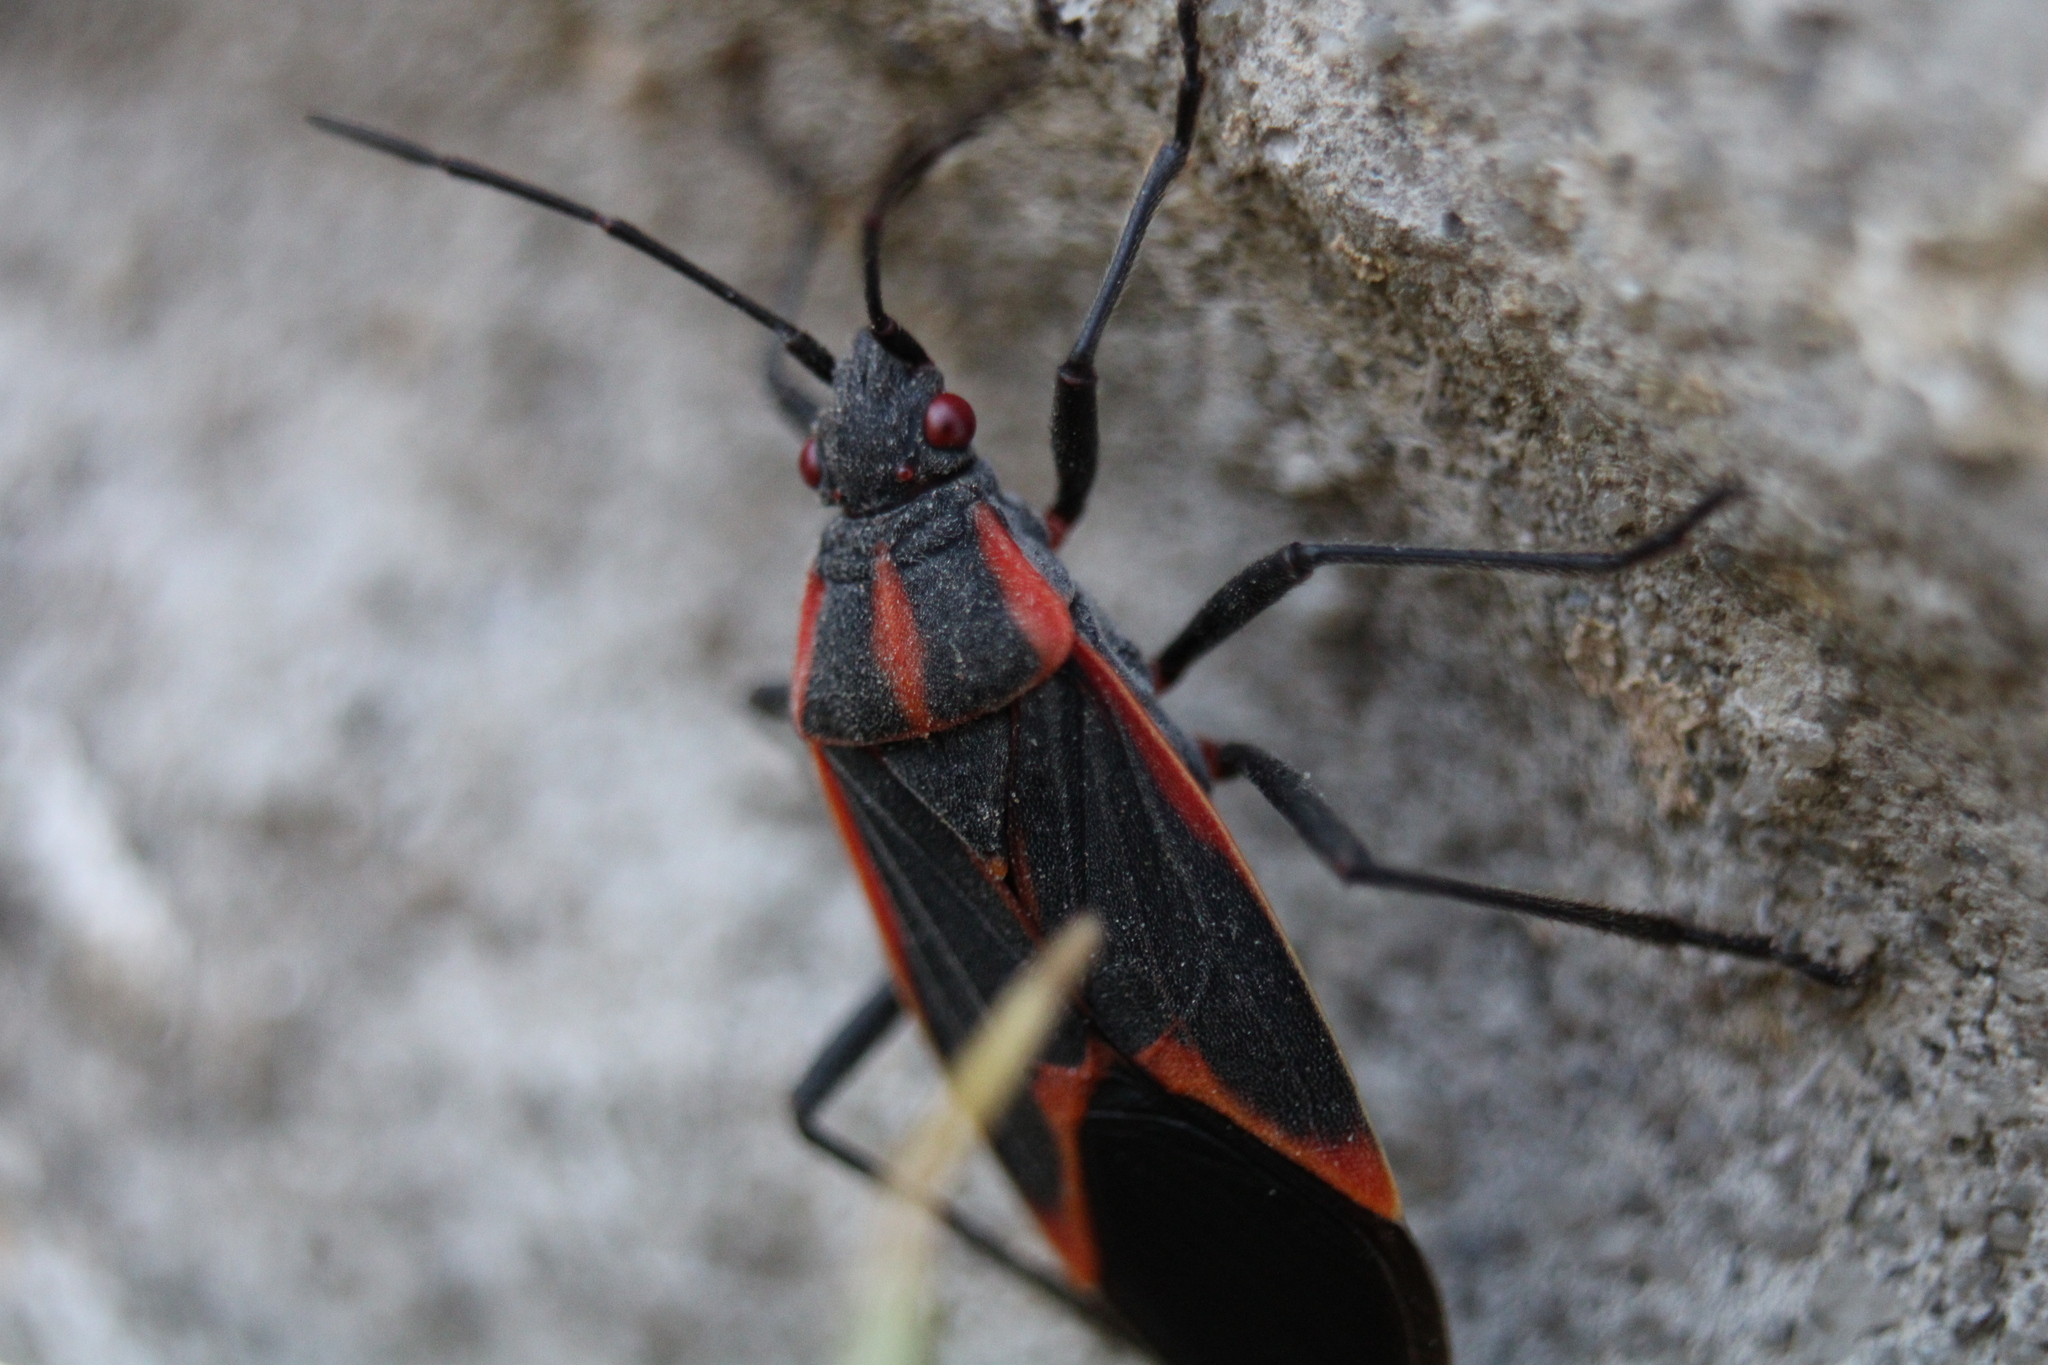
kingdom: Animalia
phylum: Arthropoda
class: Insecta
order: Hemiptera
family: Rhopalidae
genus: Boisea
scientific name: Boisea trivittata
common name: Boxelder bug
